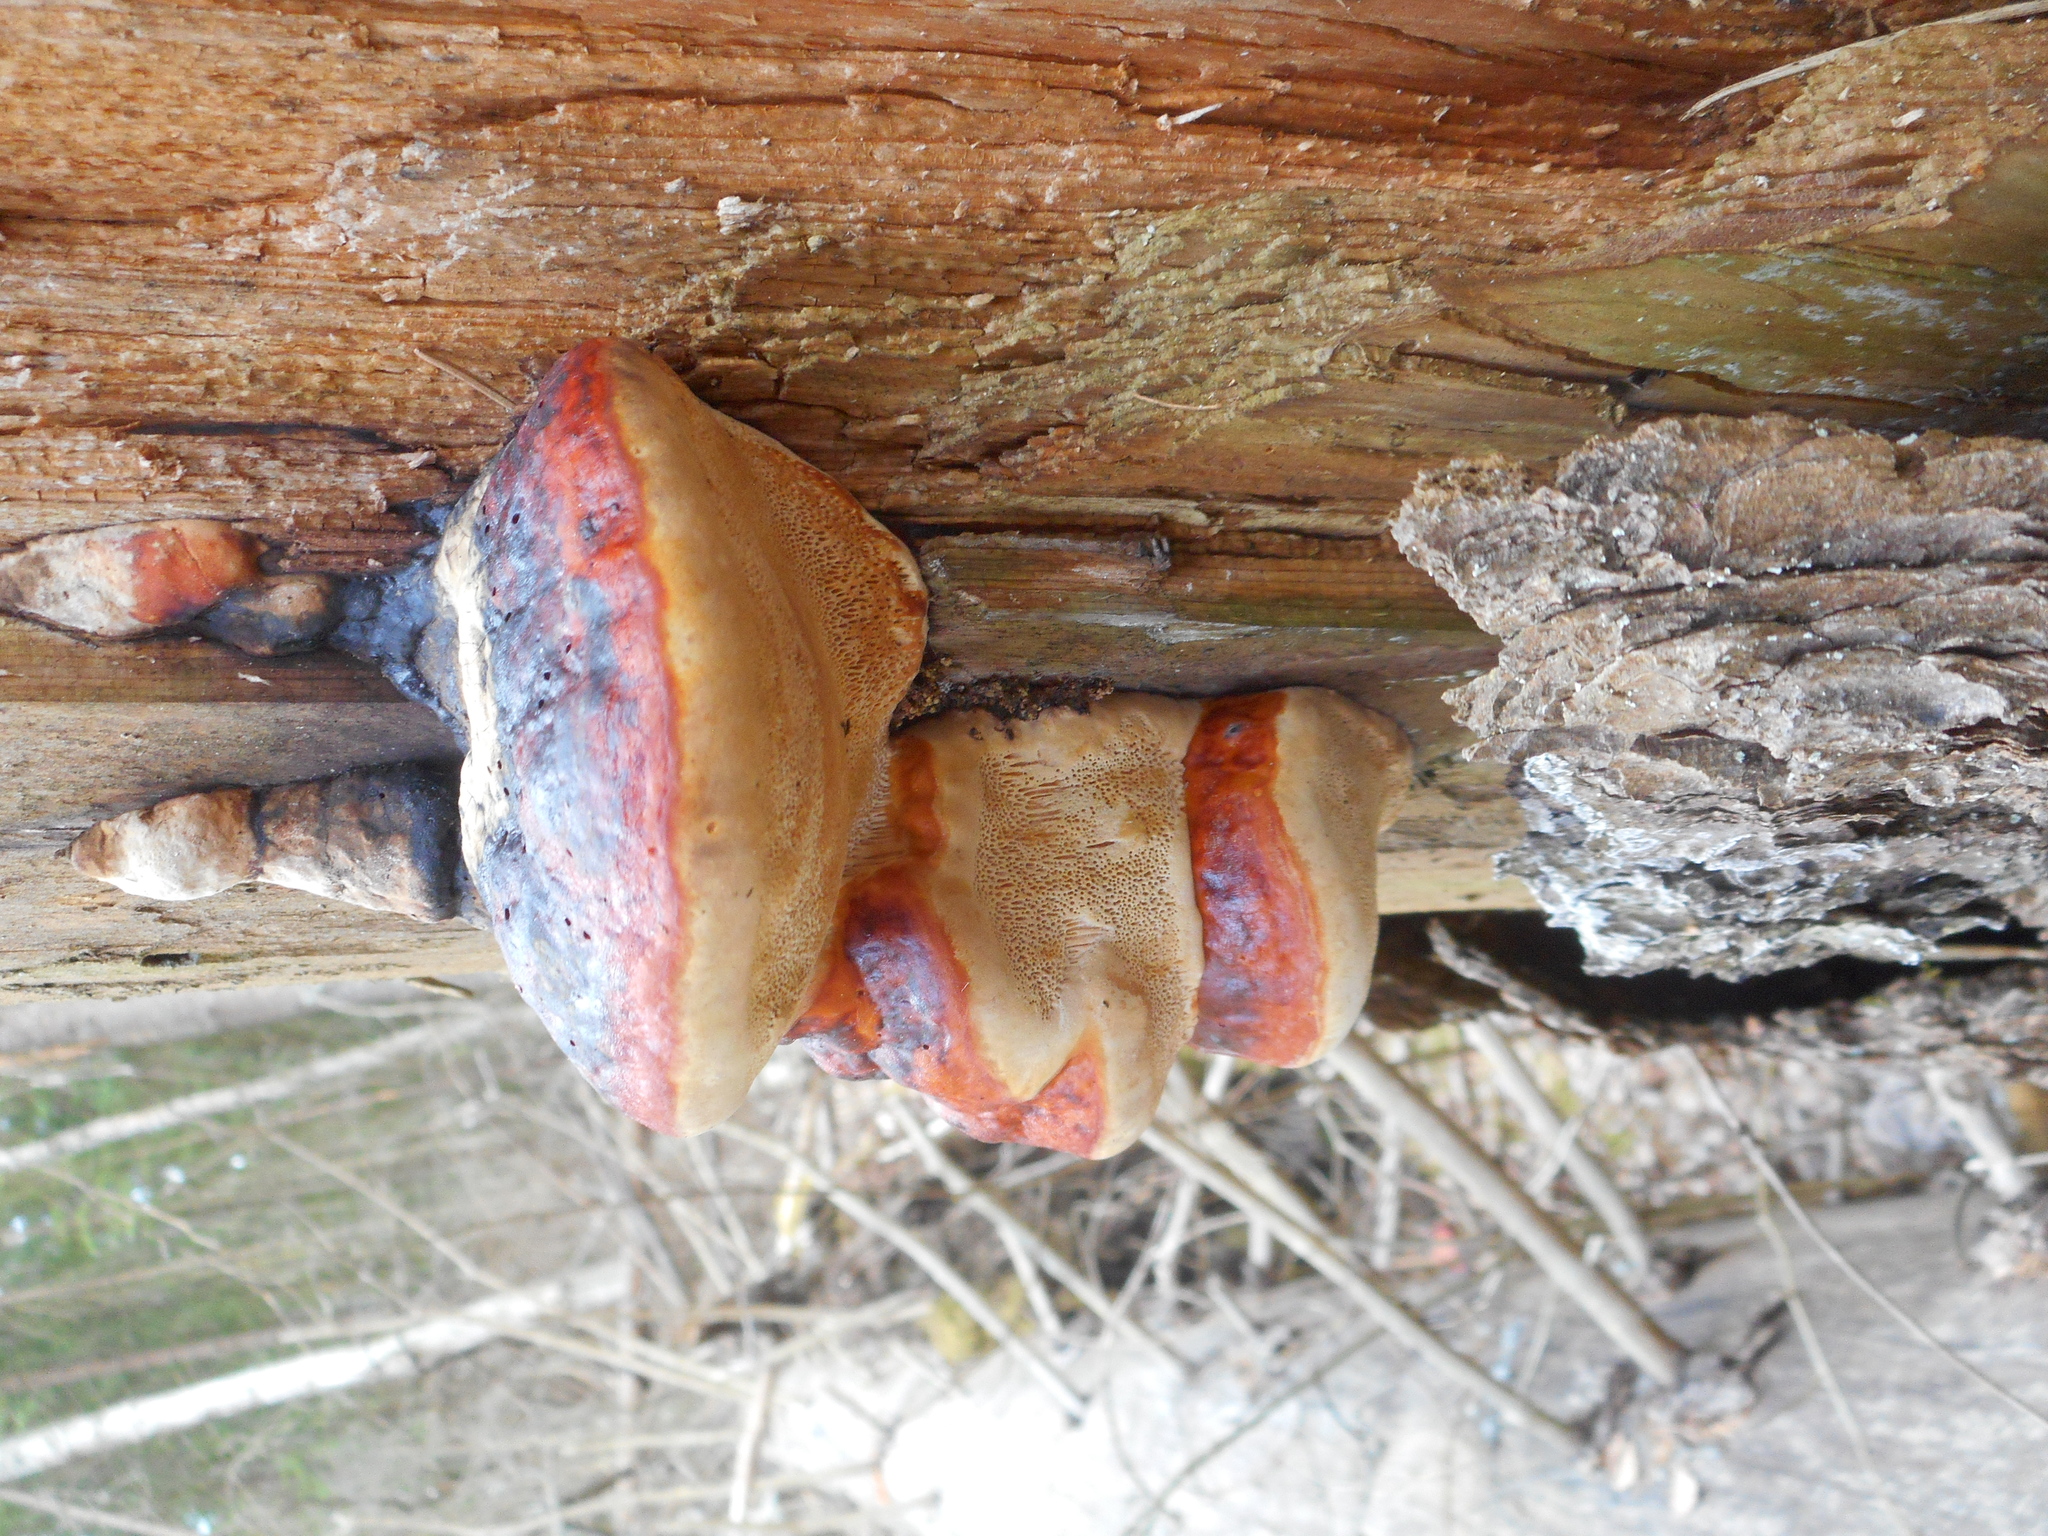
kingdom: Fungi
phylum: Basidiomycota
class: Agaricomycetes
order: Polyporales
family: Fomitopsidaceae
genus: Fomitopsis
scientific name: Fomitopsis pinicola
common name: Red-belted bracket
